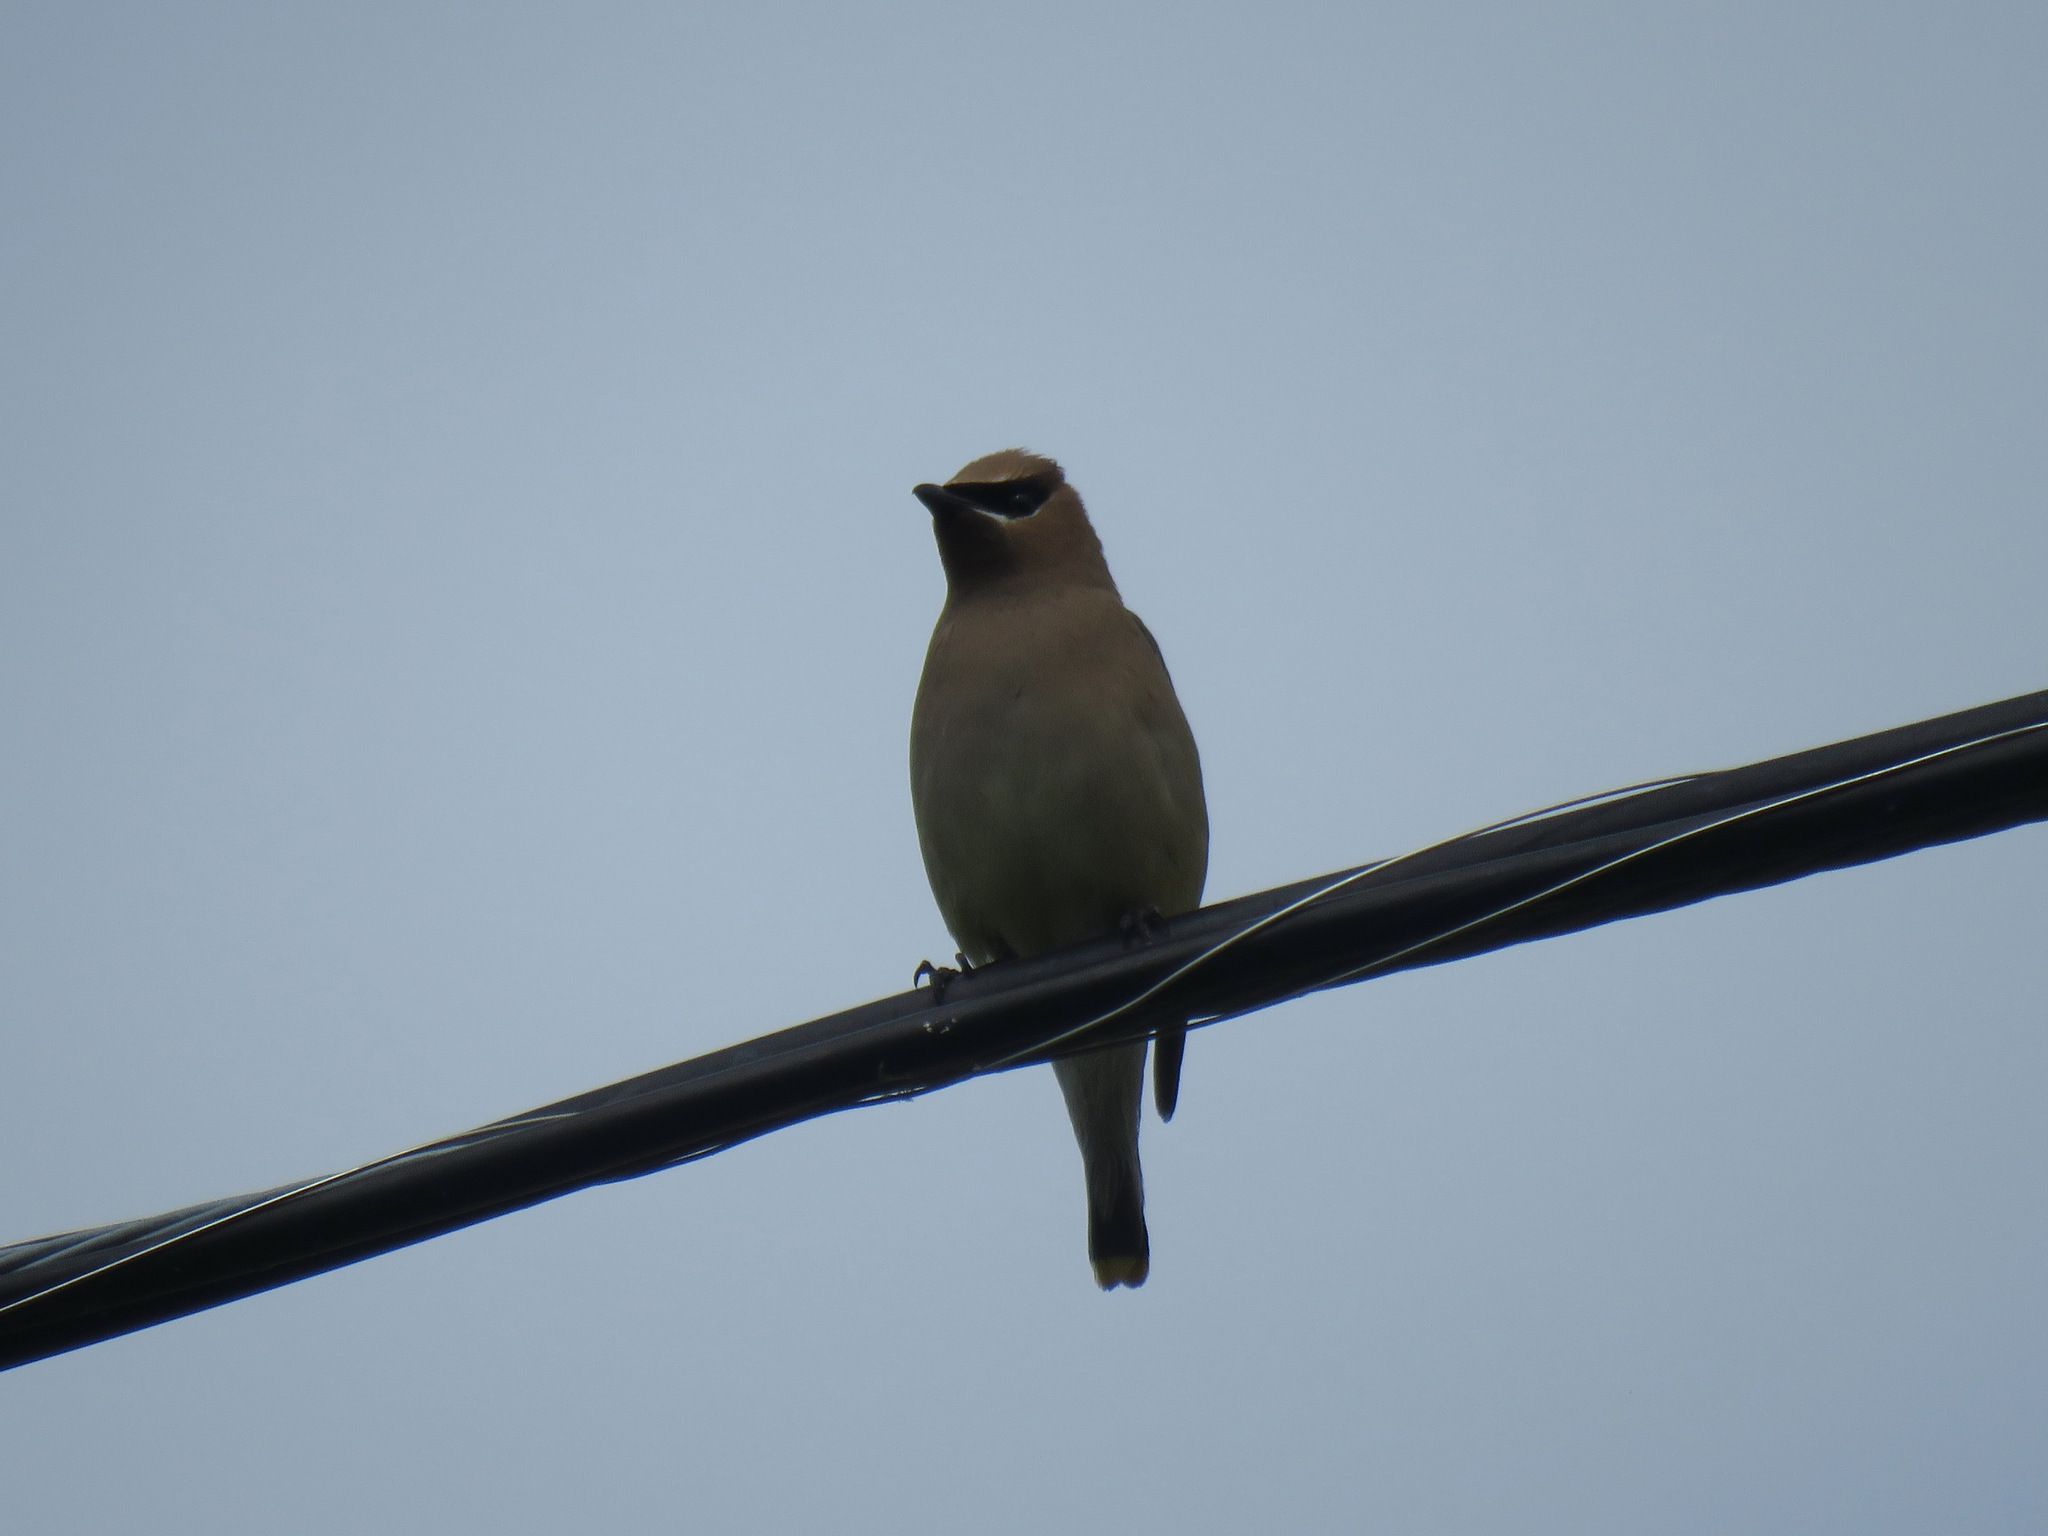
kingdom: Animalia
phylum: Chordata
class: Aves
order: Passeriformes
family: Bombycillidae
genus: Bombycilla
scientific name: Bombycilla cedrorum
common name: Cedar waxwing
